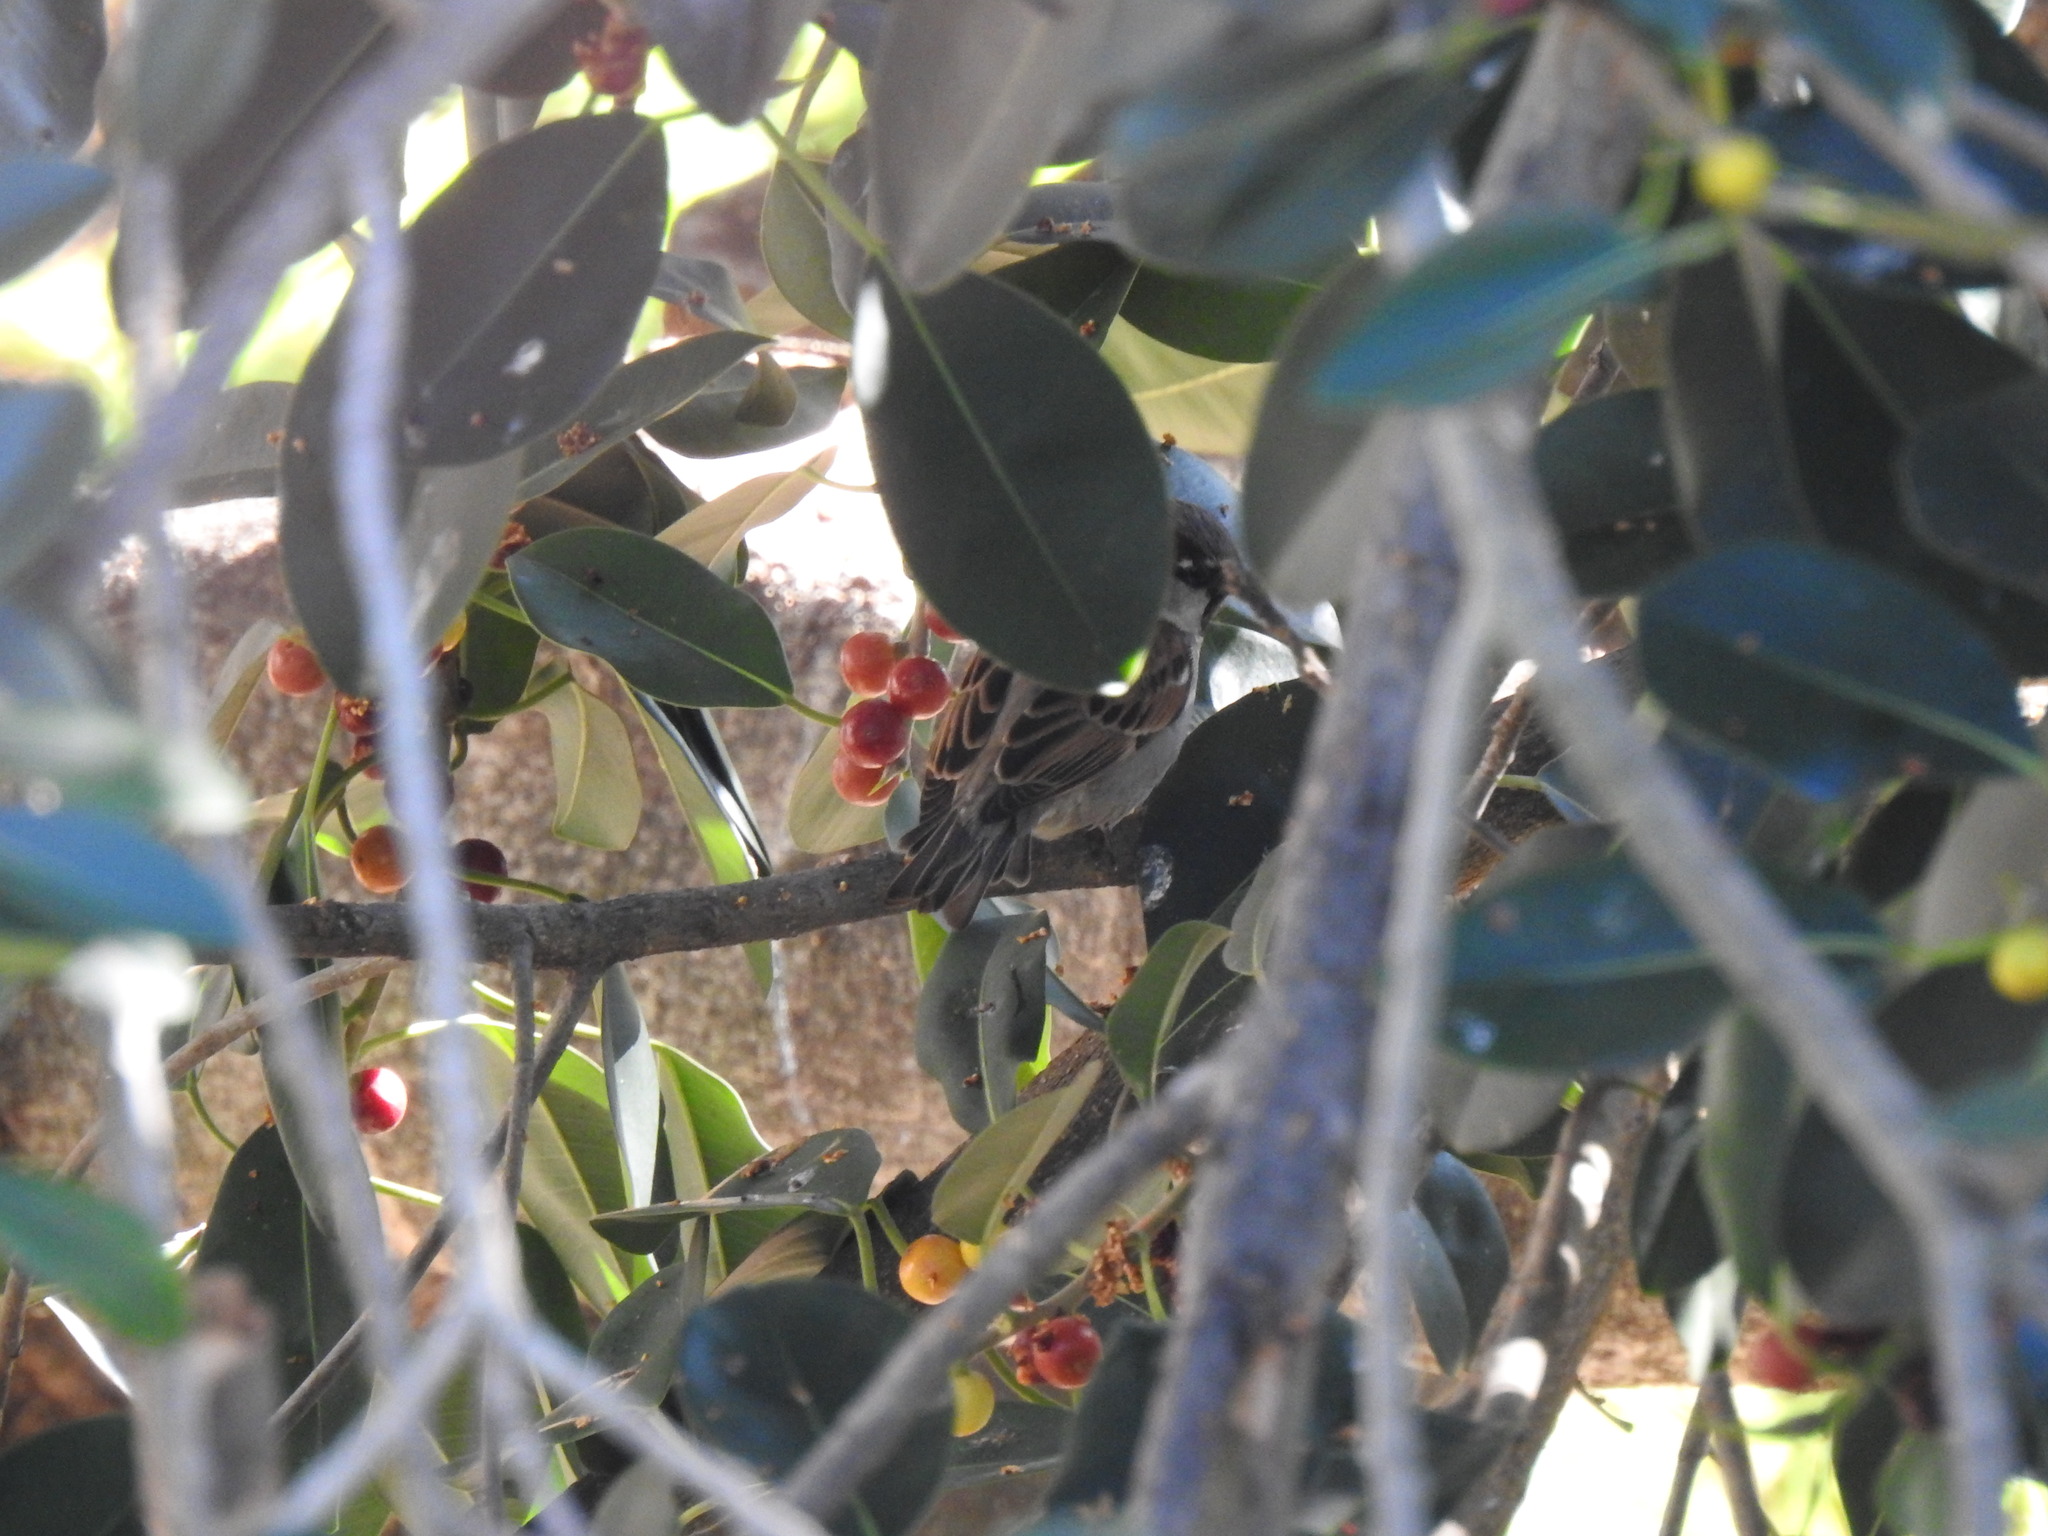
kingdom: Animalia
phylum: Chordata
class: Aves
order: Passeriformes
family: Passeridae
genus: Passer
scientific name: Passer domesticus
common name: House sparrow
